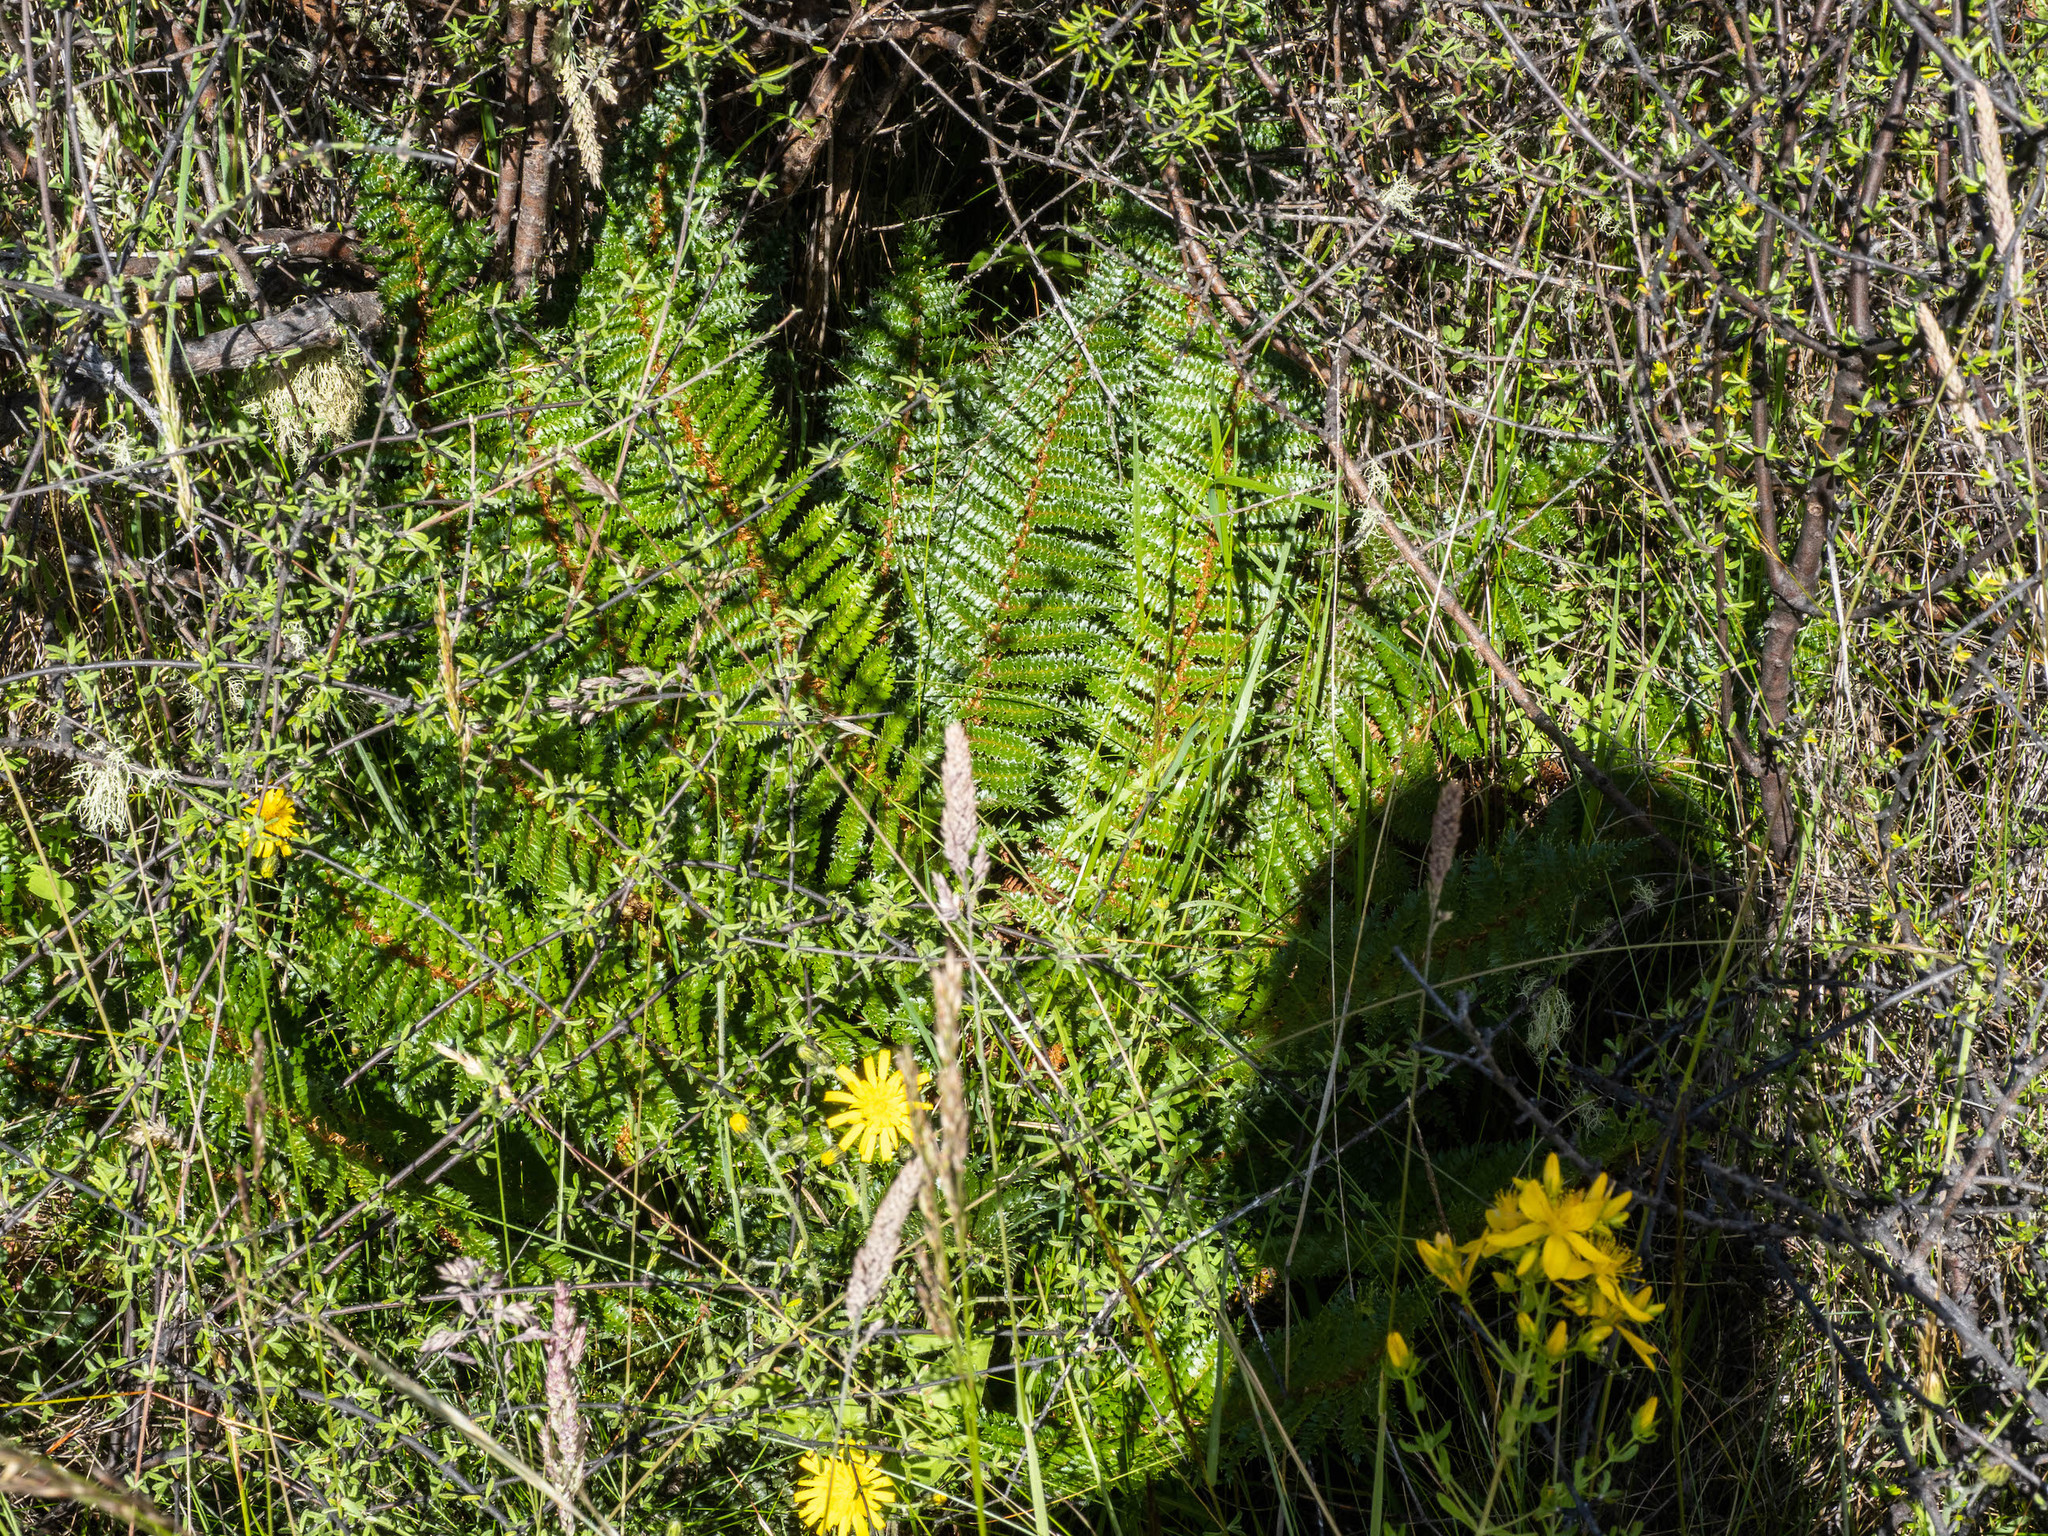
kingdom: Plantae
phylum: Tracheophyta
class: Polypodiopsida
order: Polypodiales
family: Dryopteridaceae
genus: Polystichum
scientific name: Polystichum vestitum
